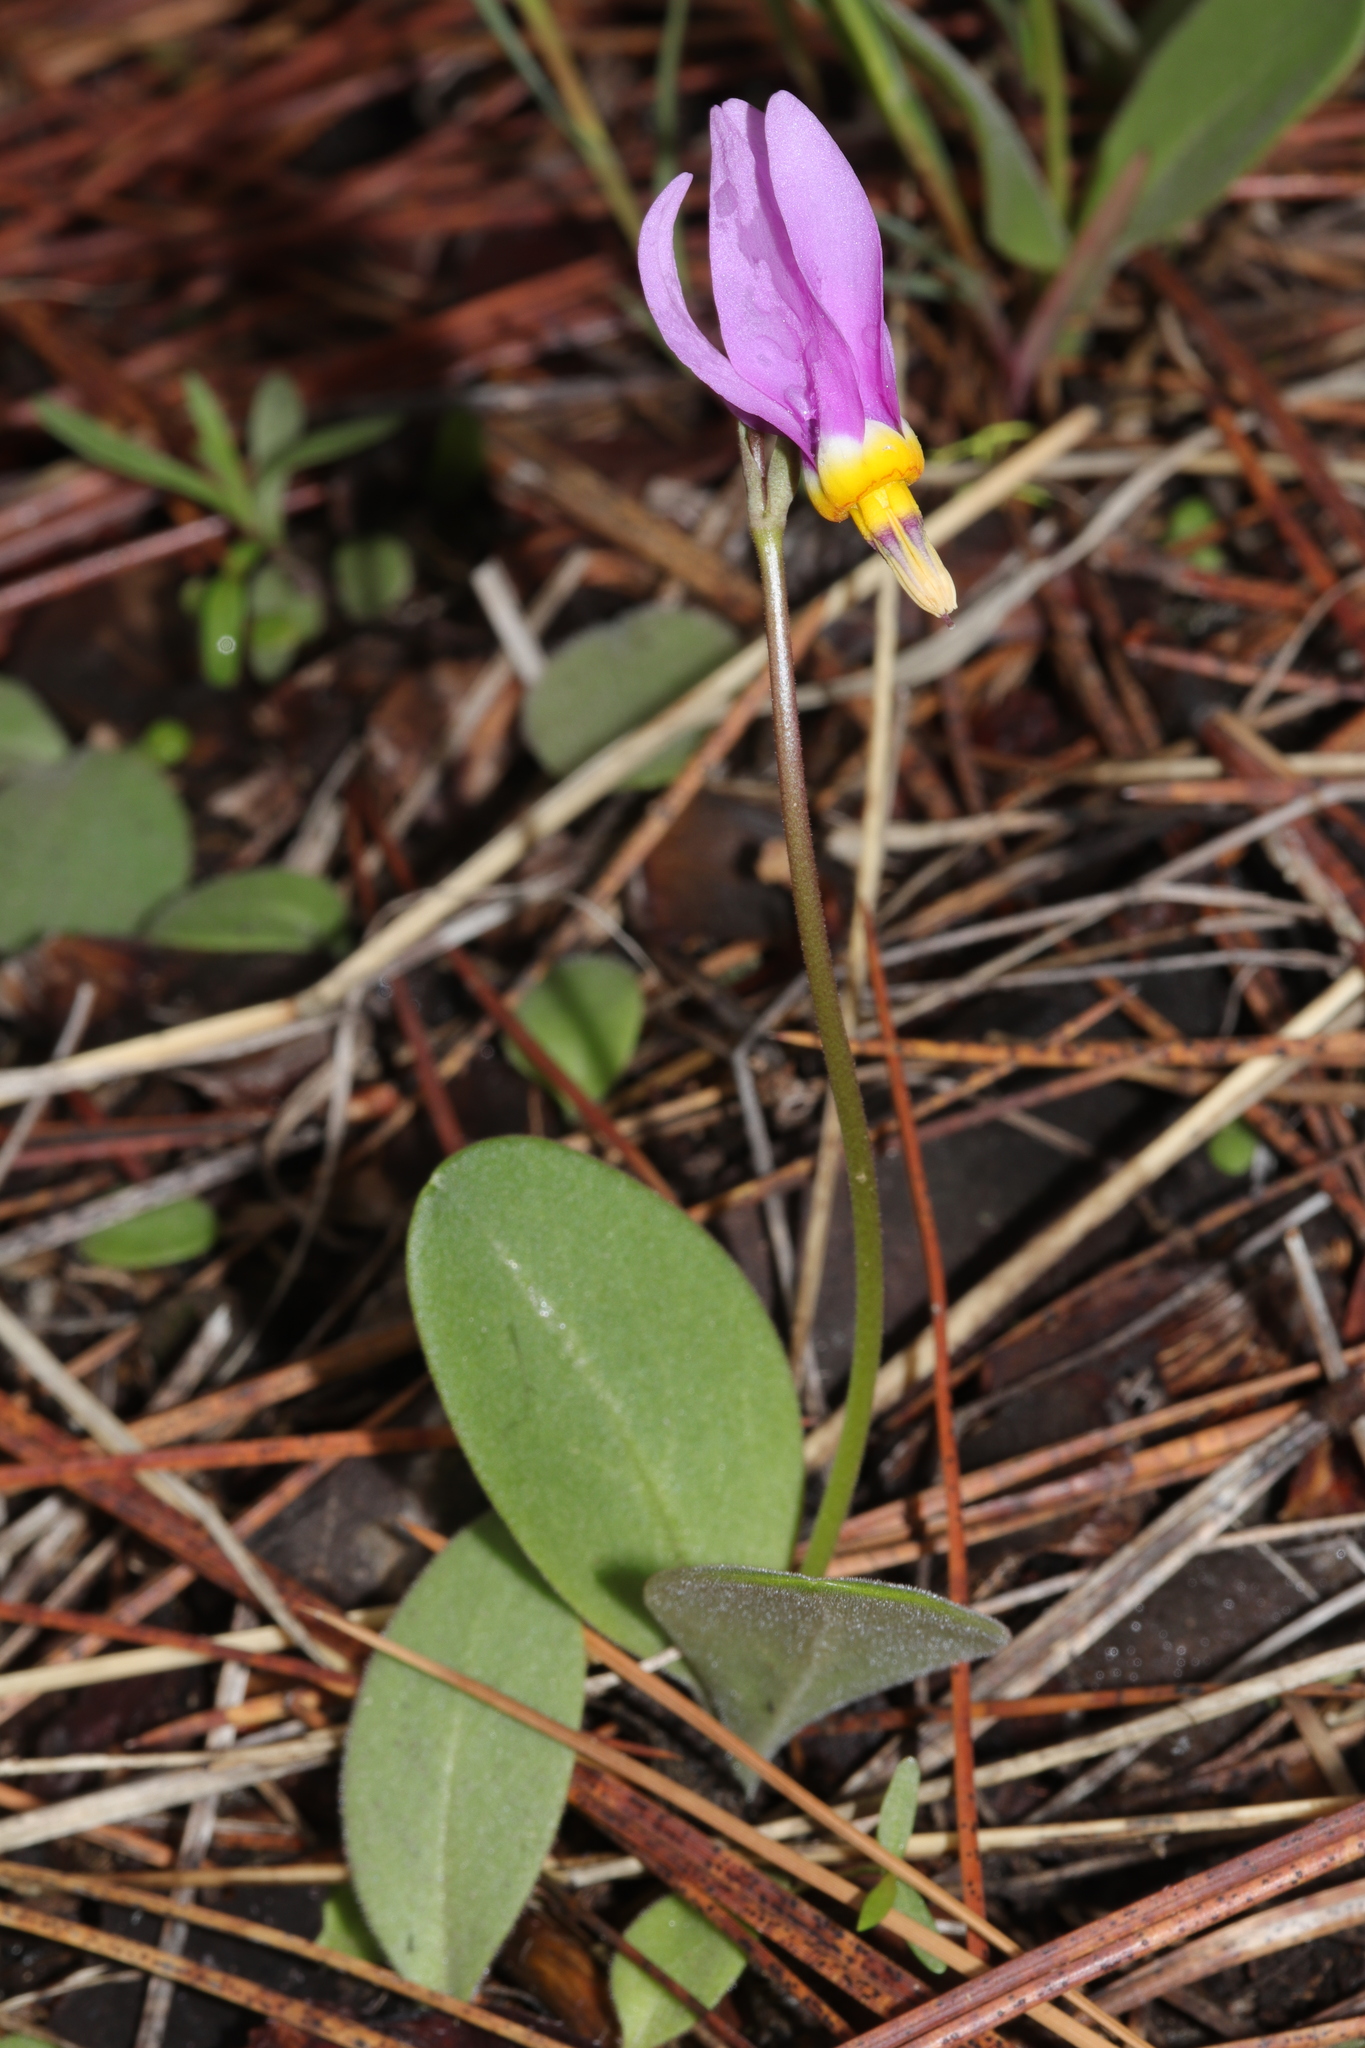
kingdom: Plantae
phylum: Tracheophyta
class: Magnoliopsida
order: Ericales
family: Primulaceae
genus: Dodecatheon
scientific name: Dodecatheon conjugens
